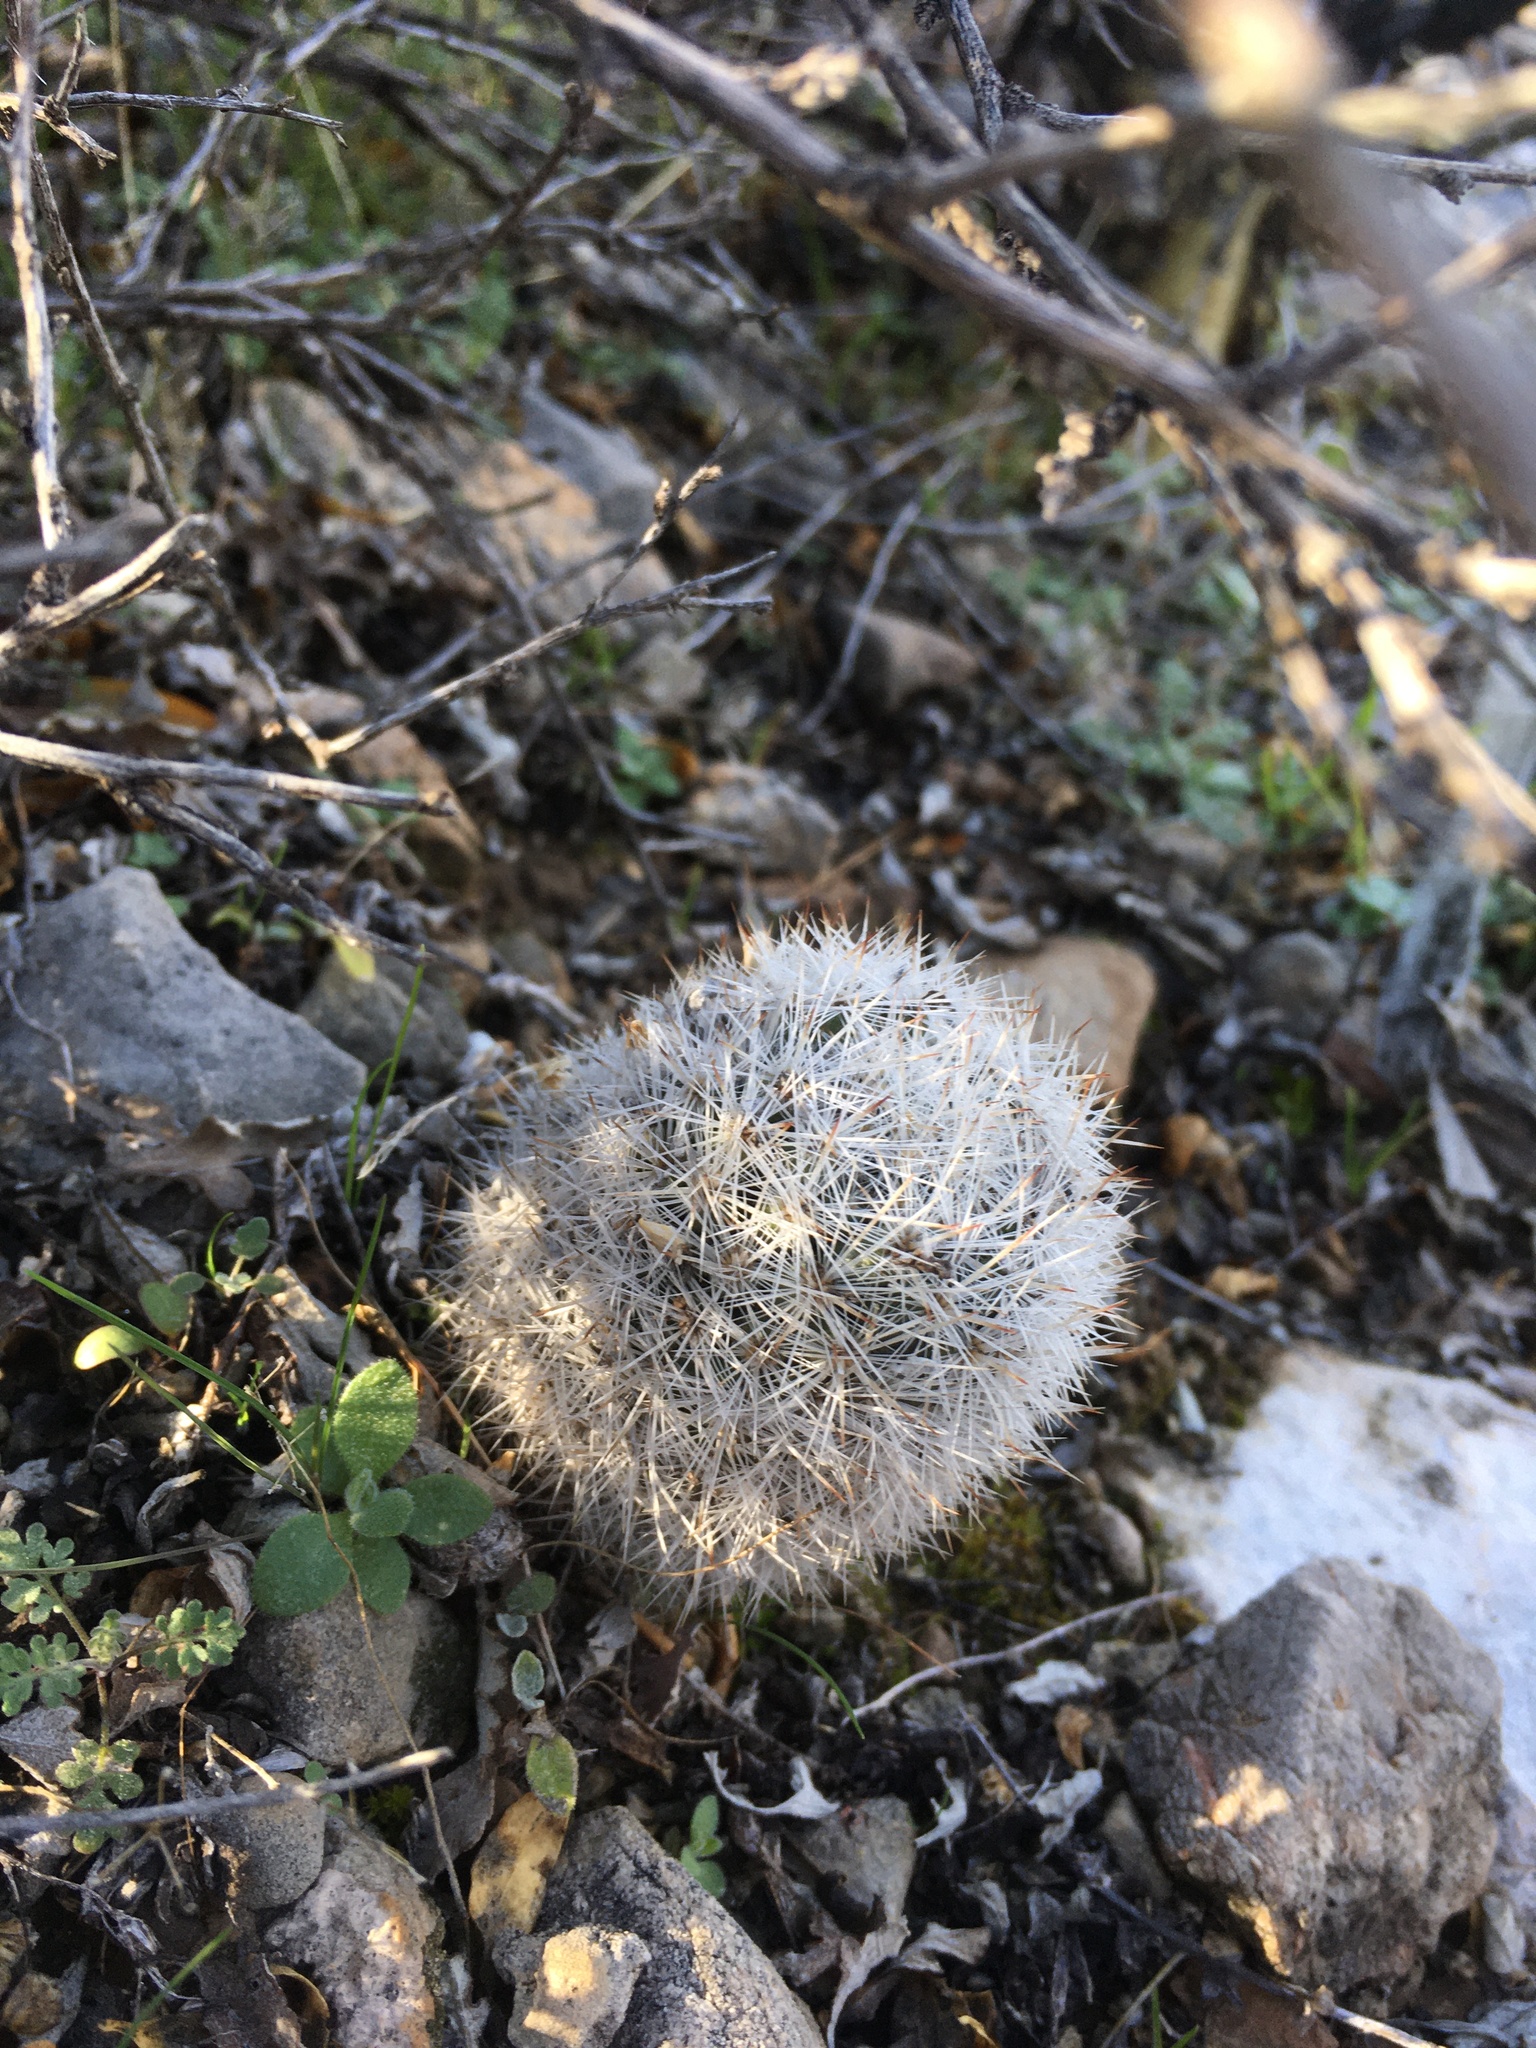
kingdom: Plantae
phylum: Tracheophyta
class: Magnoliopsida
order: Caryophyllales
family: Cactaceae
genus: Pelecyphora
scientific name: Pelecyphora sneedii
